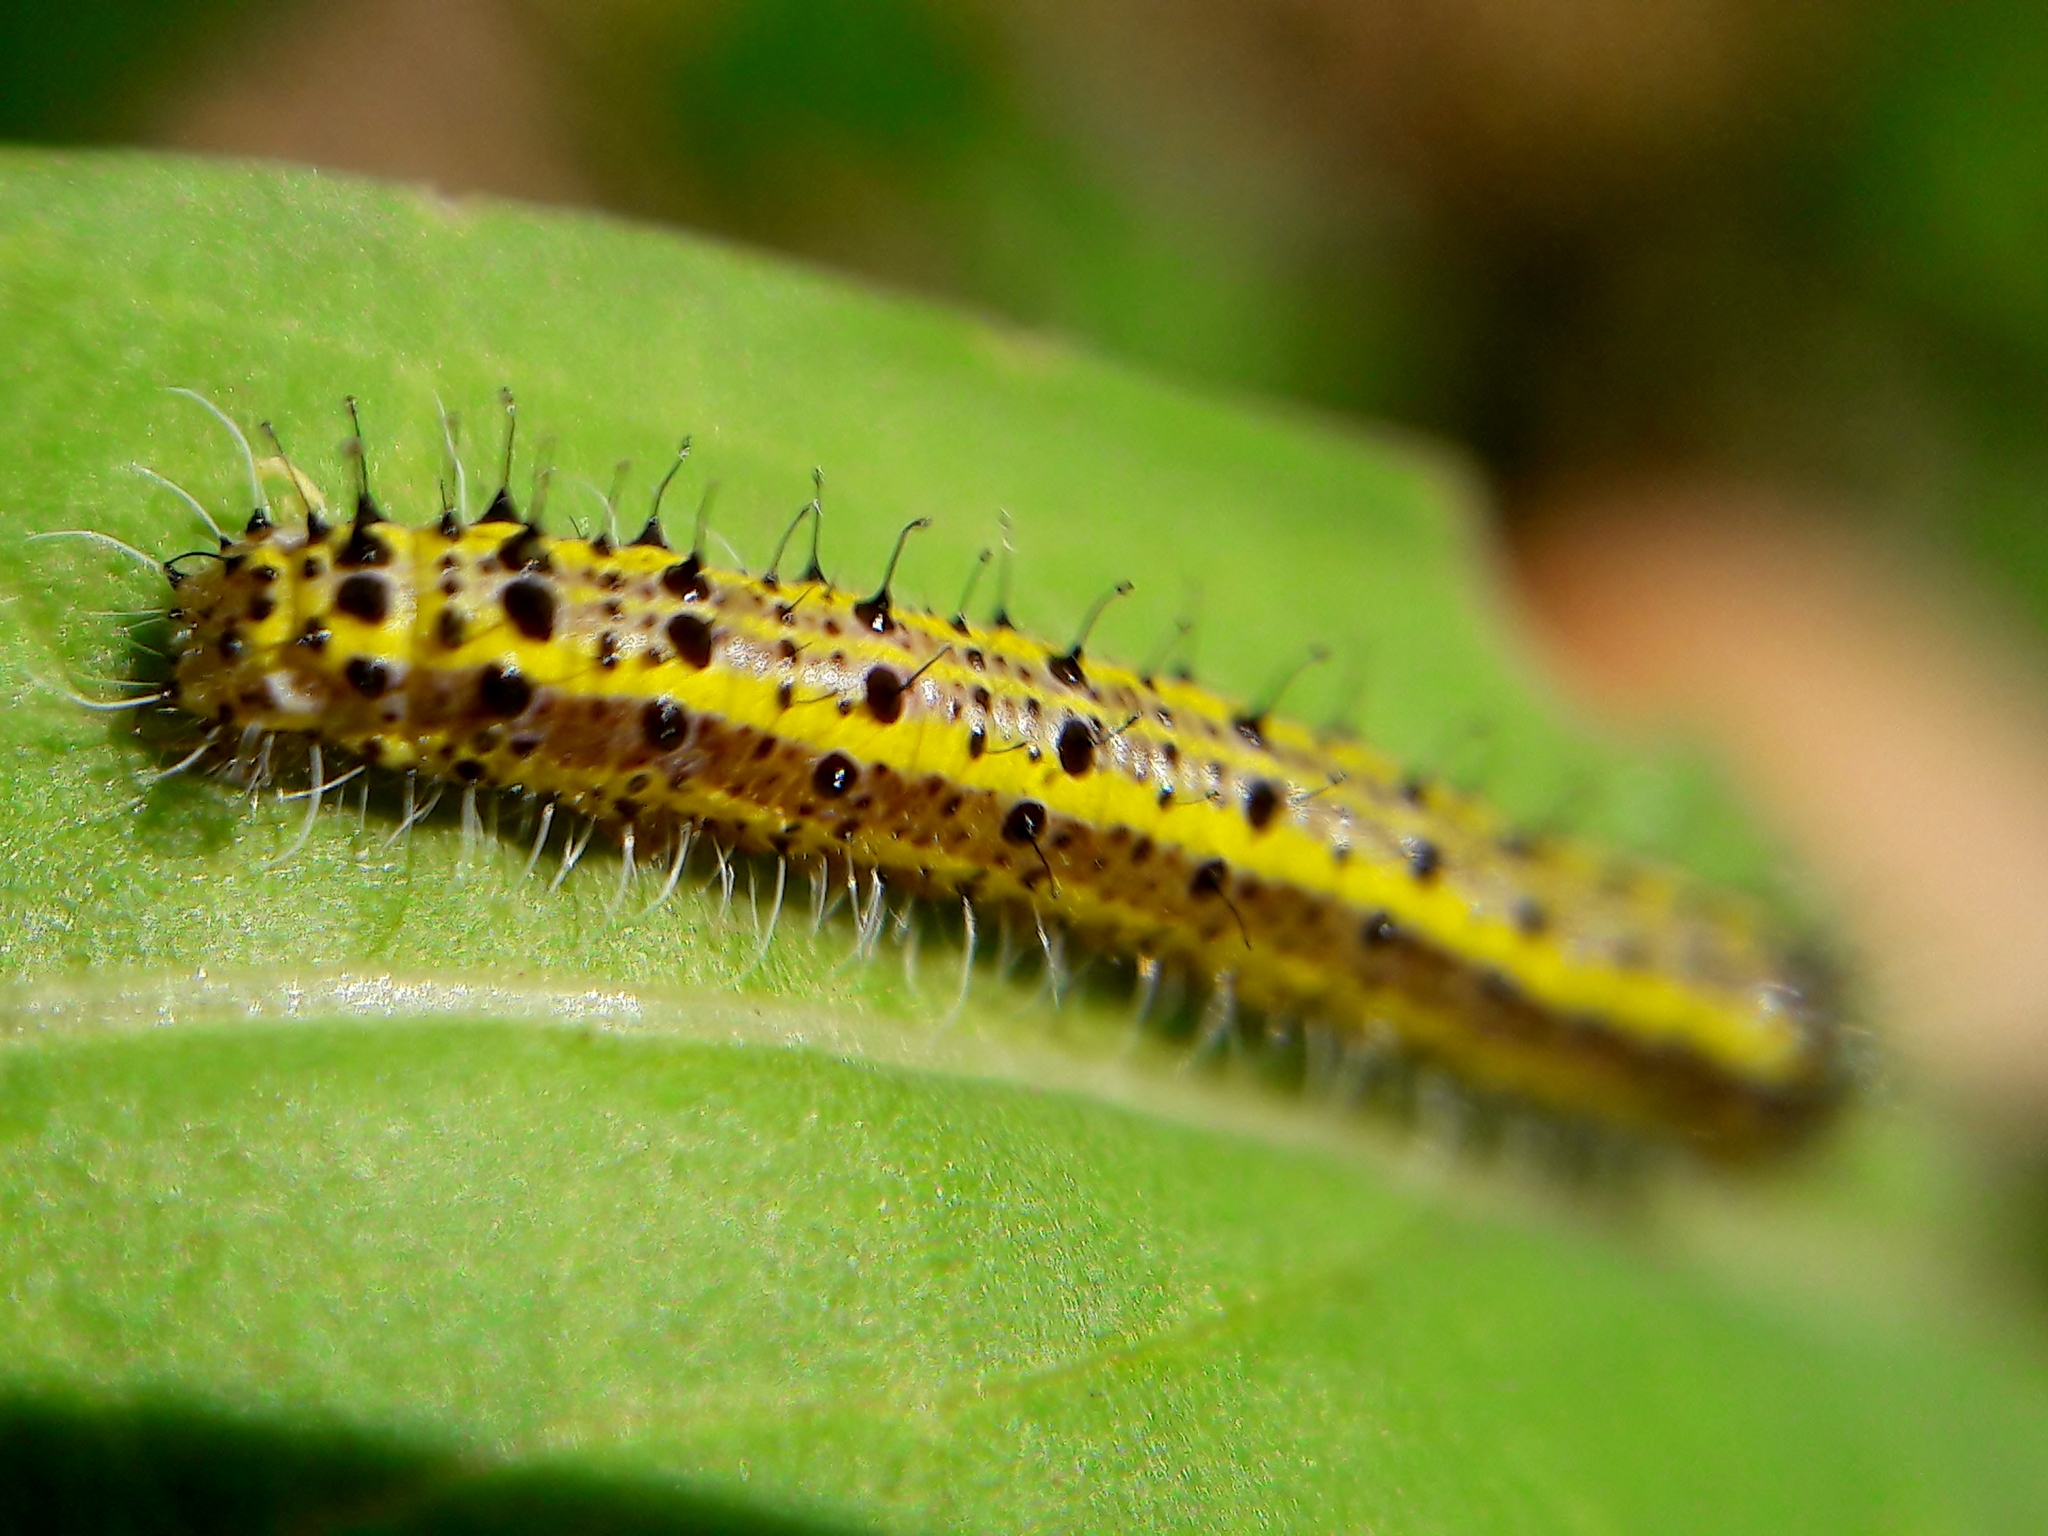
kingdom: Animalia
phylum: Arthropoda
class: Insecta
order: Lepidoptera
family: Pieridae
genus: Ascia
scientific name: Ascia monuste
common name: Great southern white
